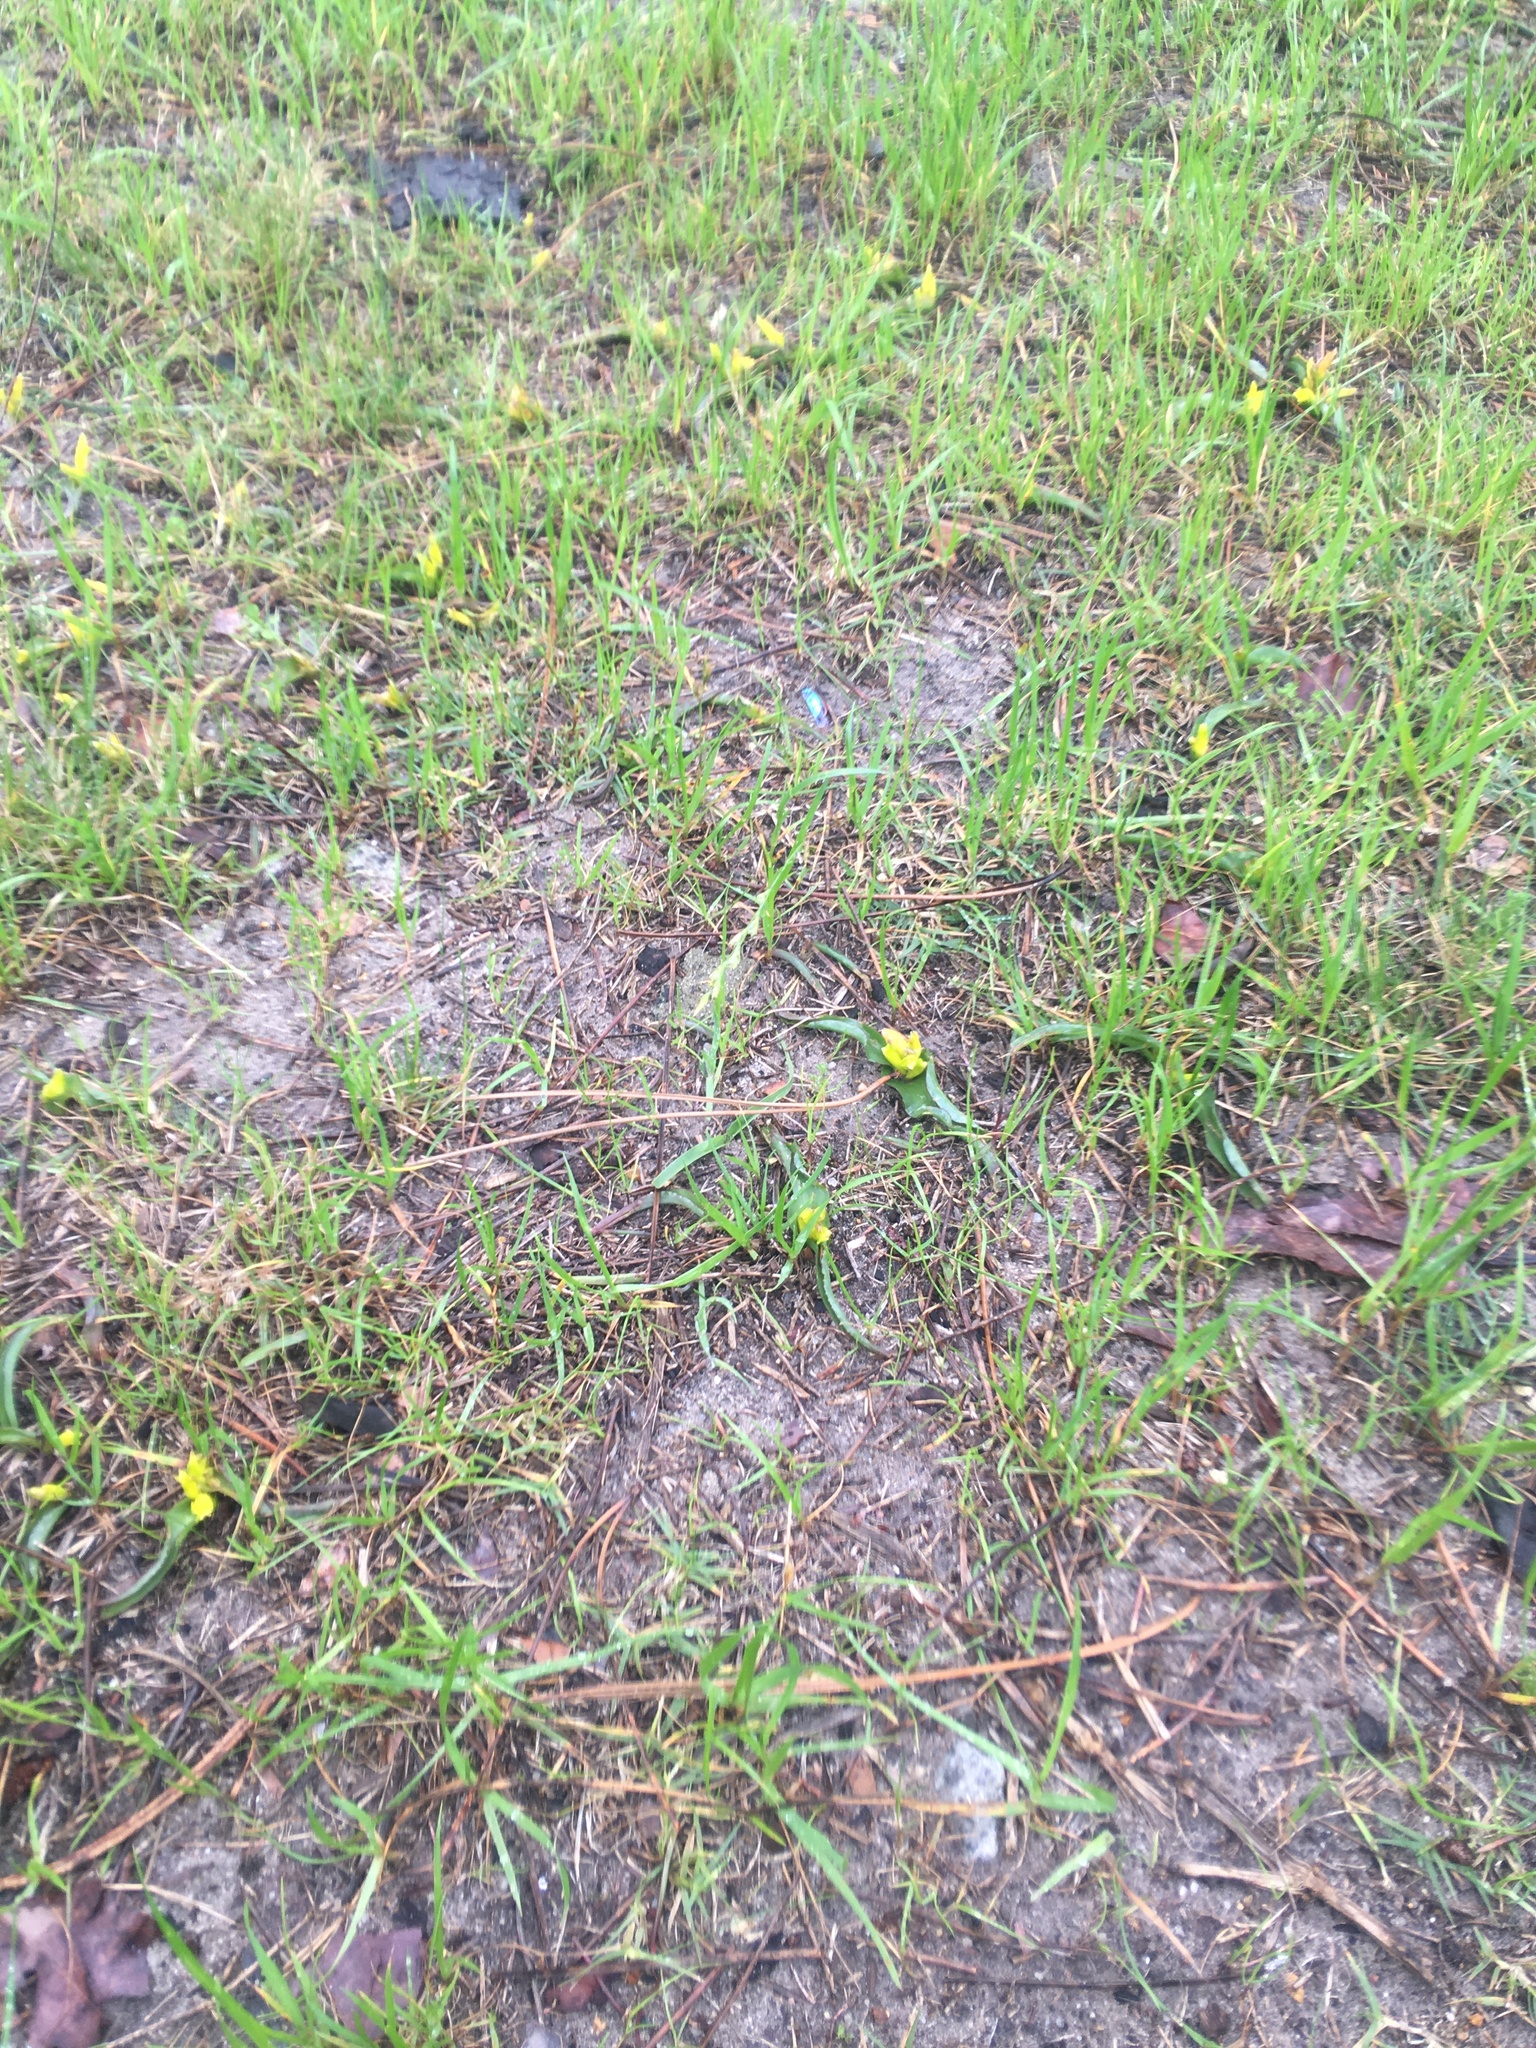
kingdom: Plantae
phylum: Tracheophyta
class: Liliopsida
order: Asparagales
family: Asparagaceae
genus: Lachenalia
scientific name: Lachenalia reflexa
